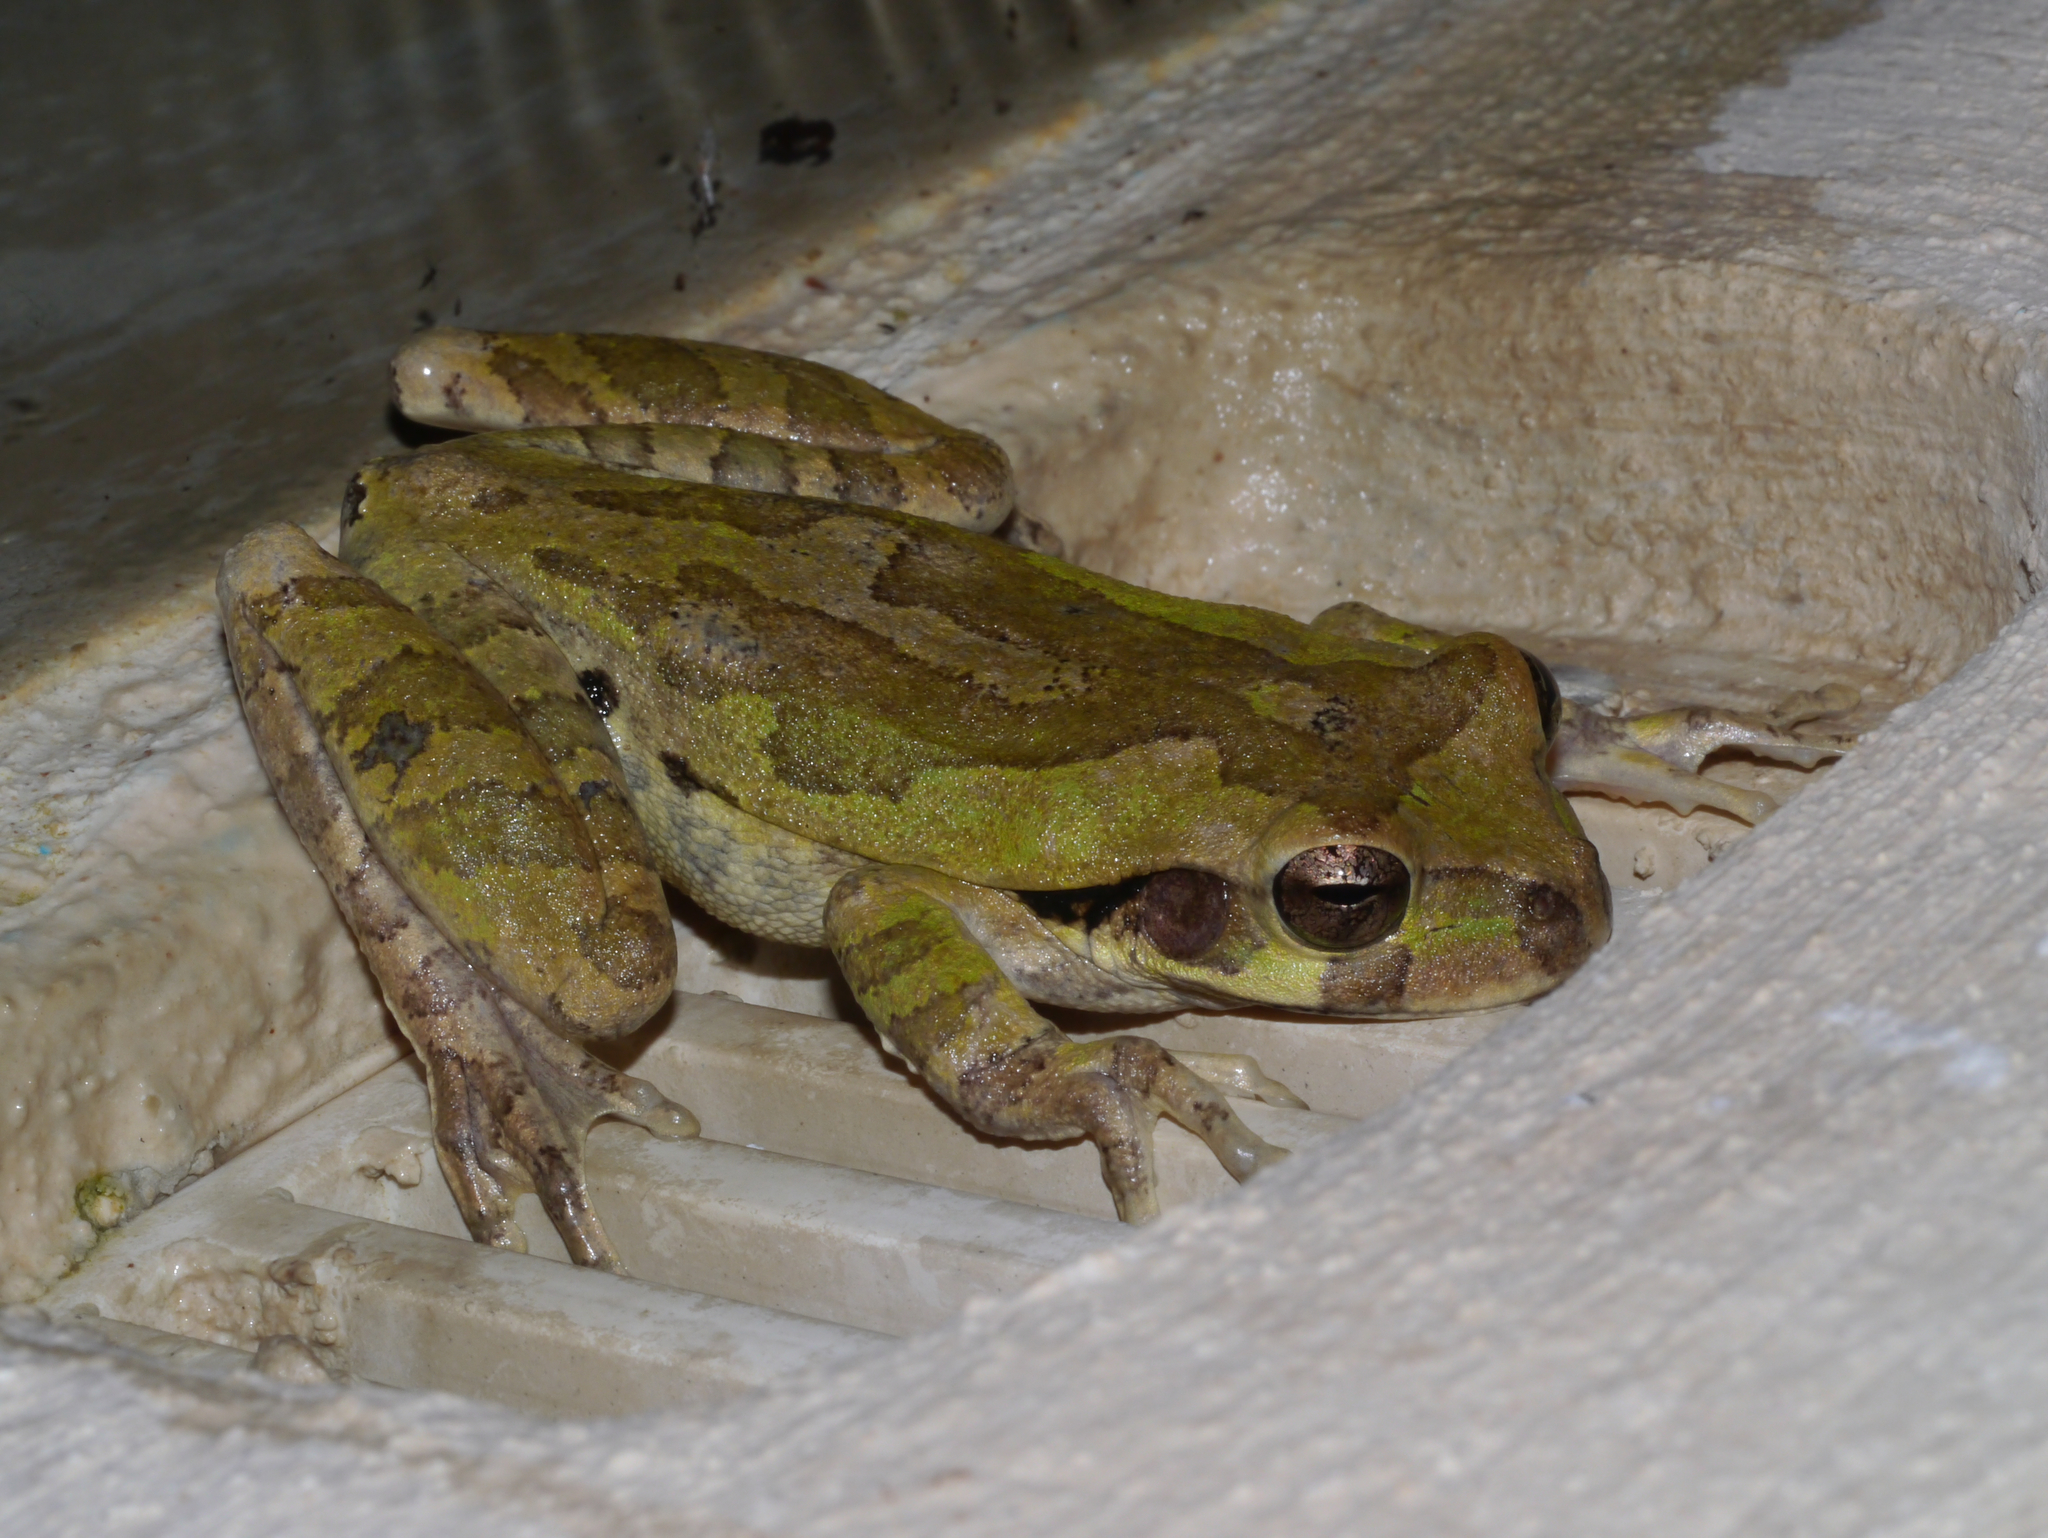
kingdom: Animalia
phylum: Chordata
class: Amphibia
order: Anura
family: Hylidae
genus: Smilisca
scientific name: Smilisca baudinii
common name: Mexican smilisca
